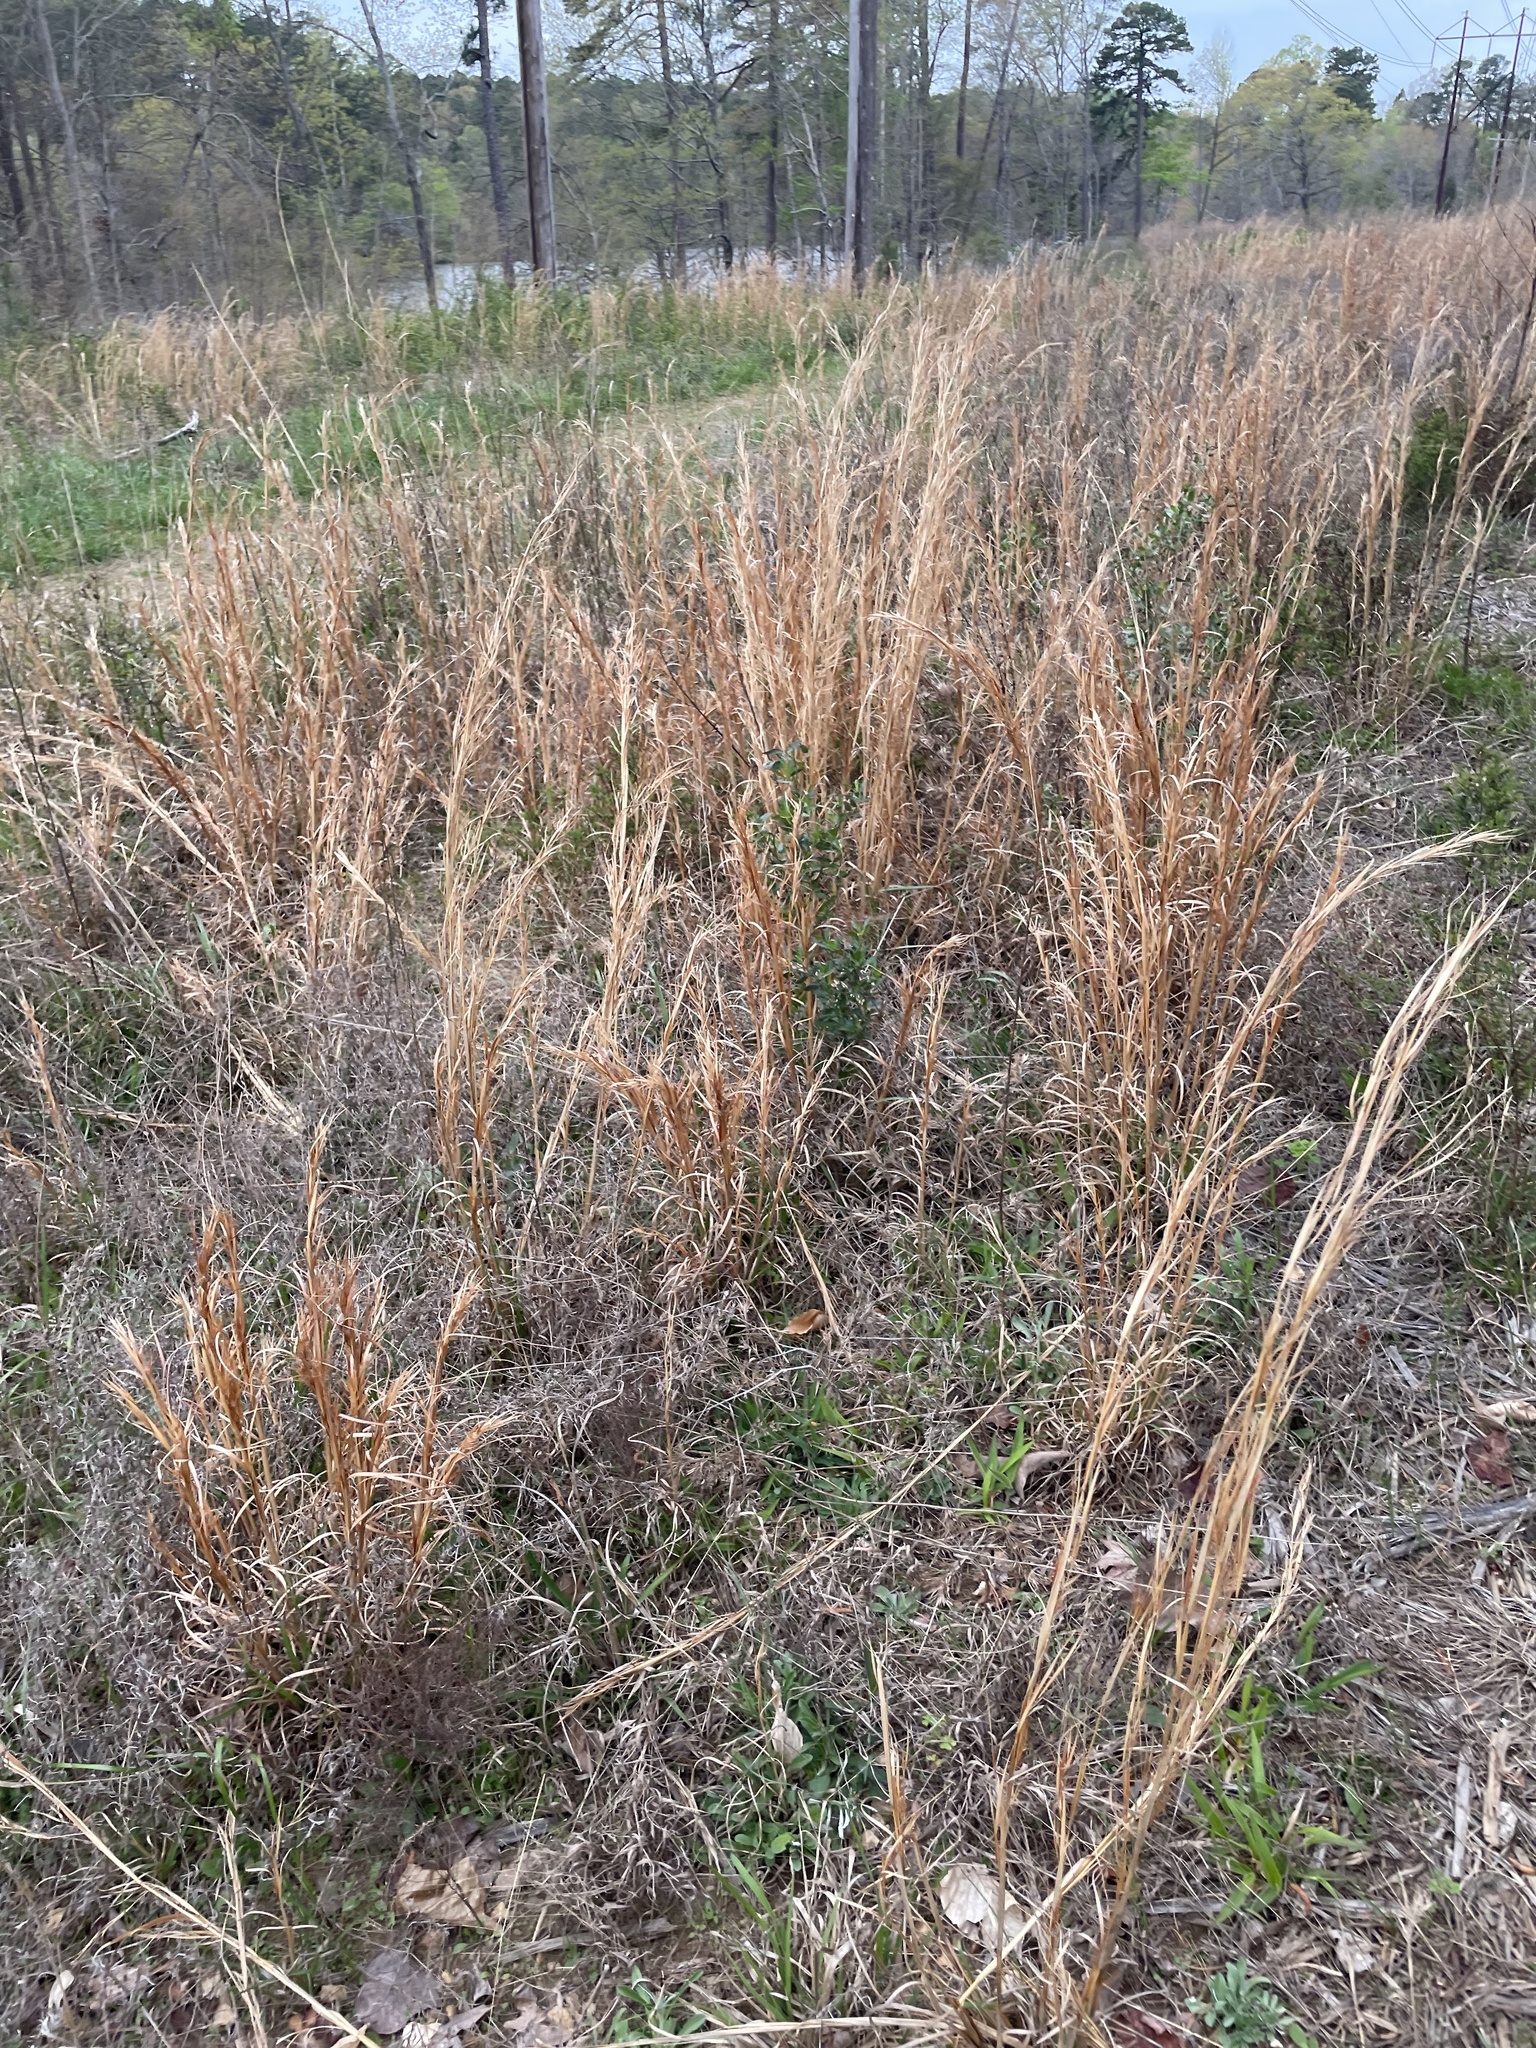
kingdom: Plantae
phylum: Tracheophyta
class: Liliopsida
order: Poales
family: Poaceae
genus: Andropogon
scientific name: Andropogon virginicus
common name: Broomsedge bluestem
